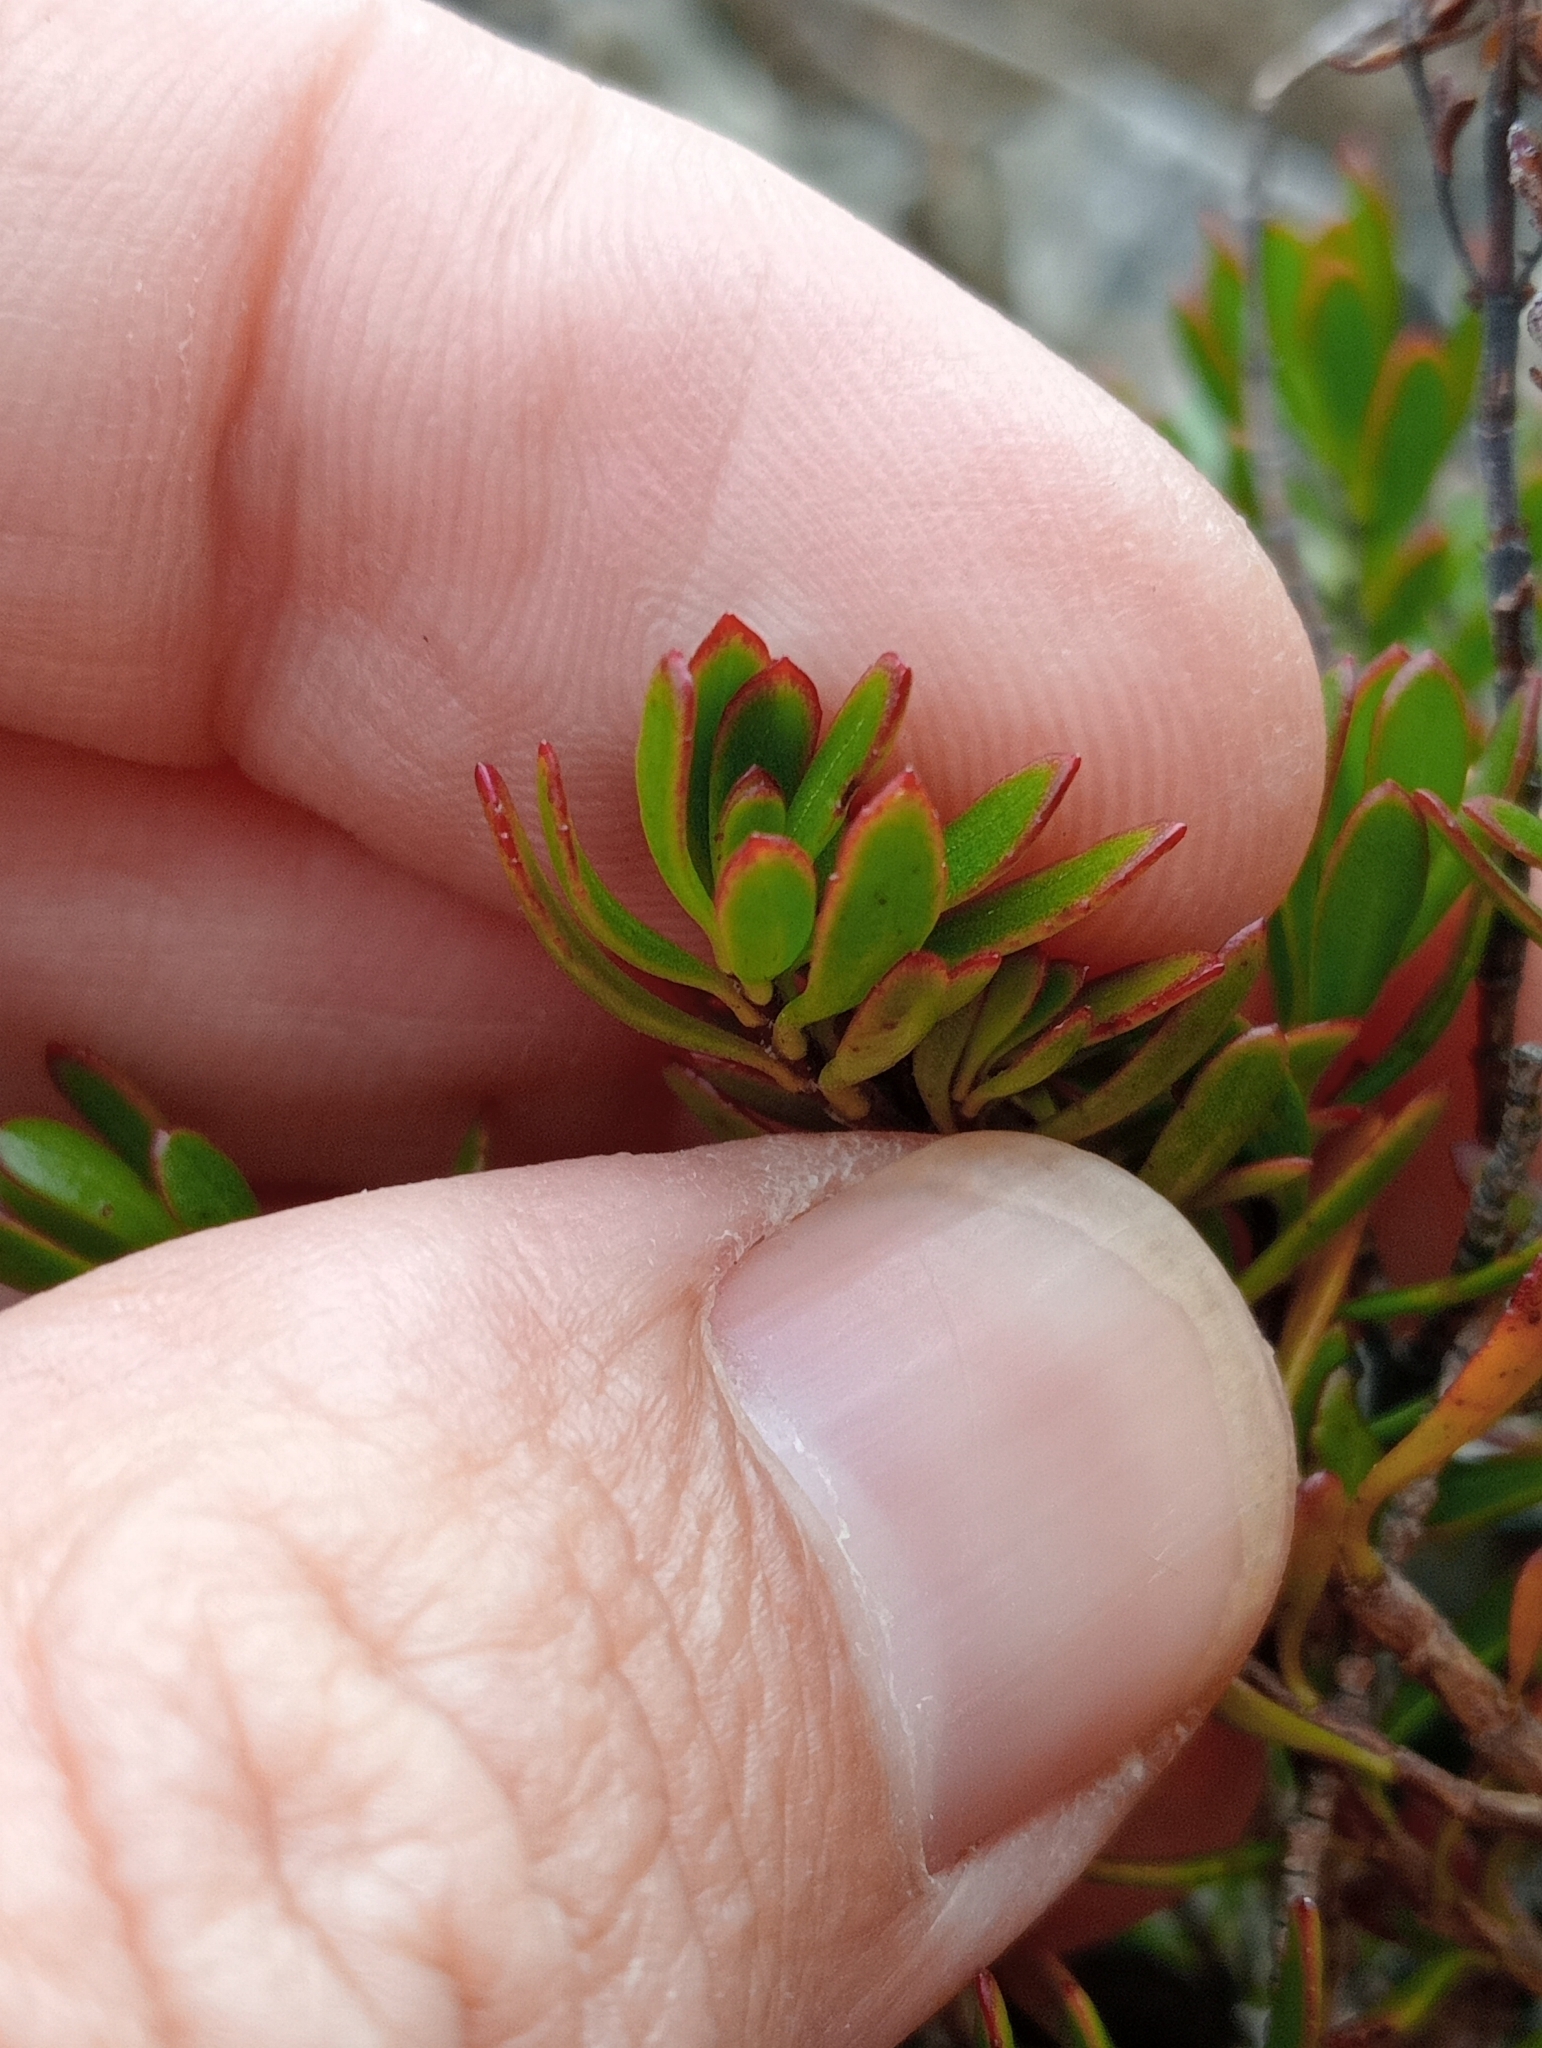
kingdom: Plantae
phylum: Tracheophyta
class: Magnoliopsida
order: Lamiales
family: Plantaginaceae
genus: Veronica
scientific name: Veronica raoulii
